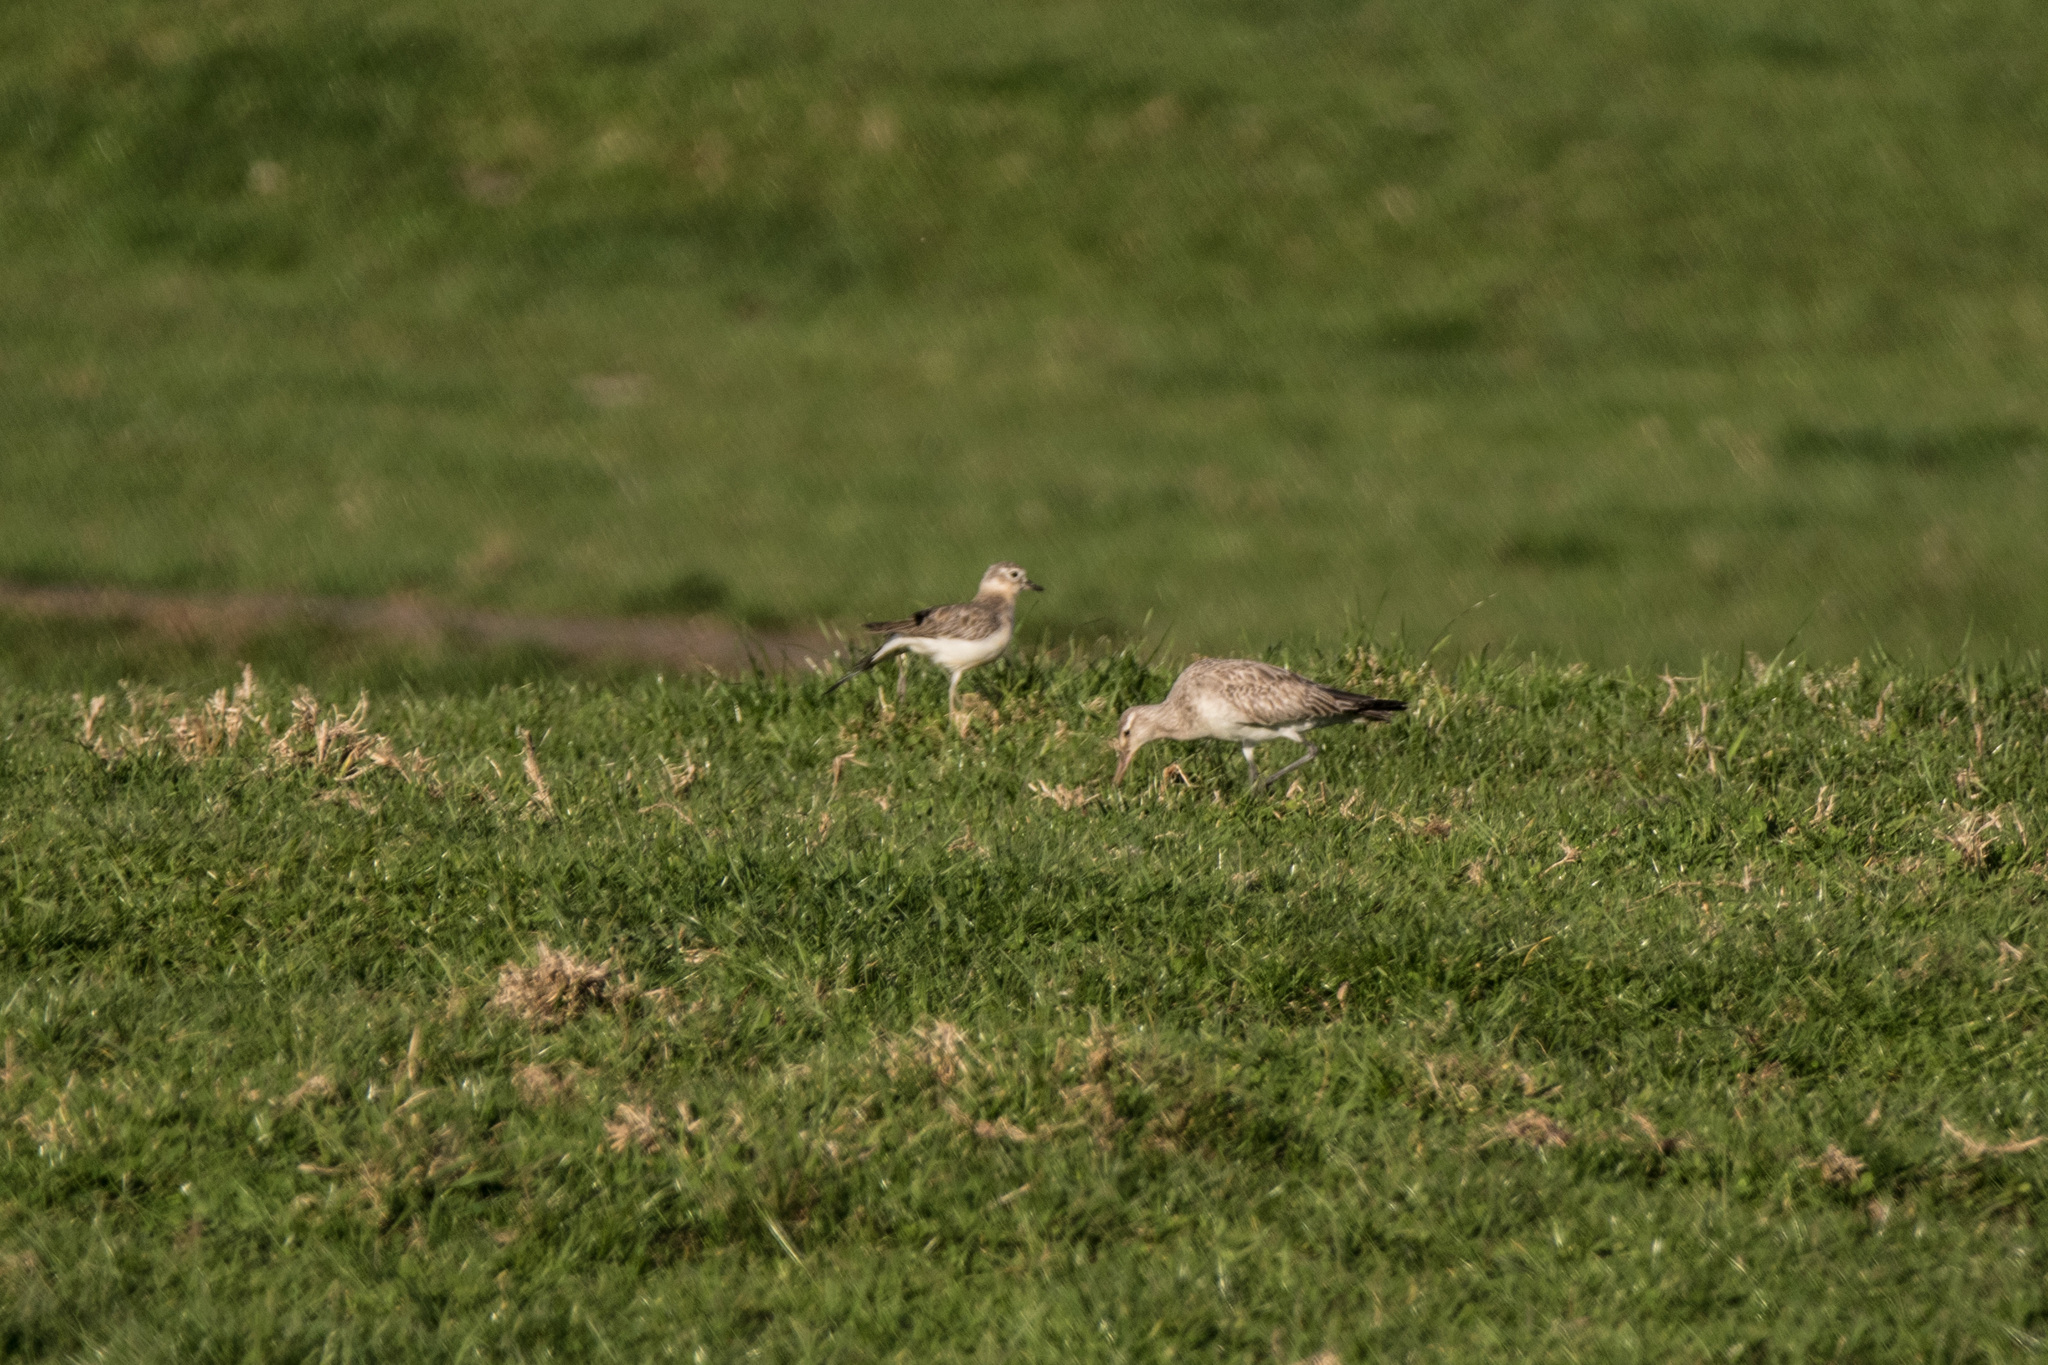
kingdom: Animalia
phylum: Chordata
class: Aves
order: Charadriiformes
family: Scolopacidae
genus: Limosa
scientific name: Limosa lapponica
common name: Bar-tailed godwit
